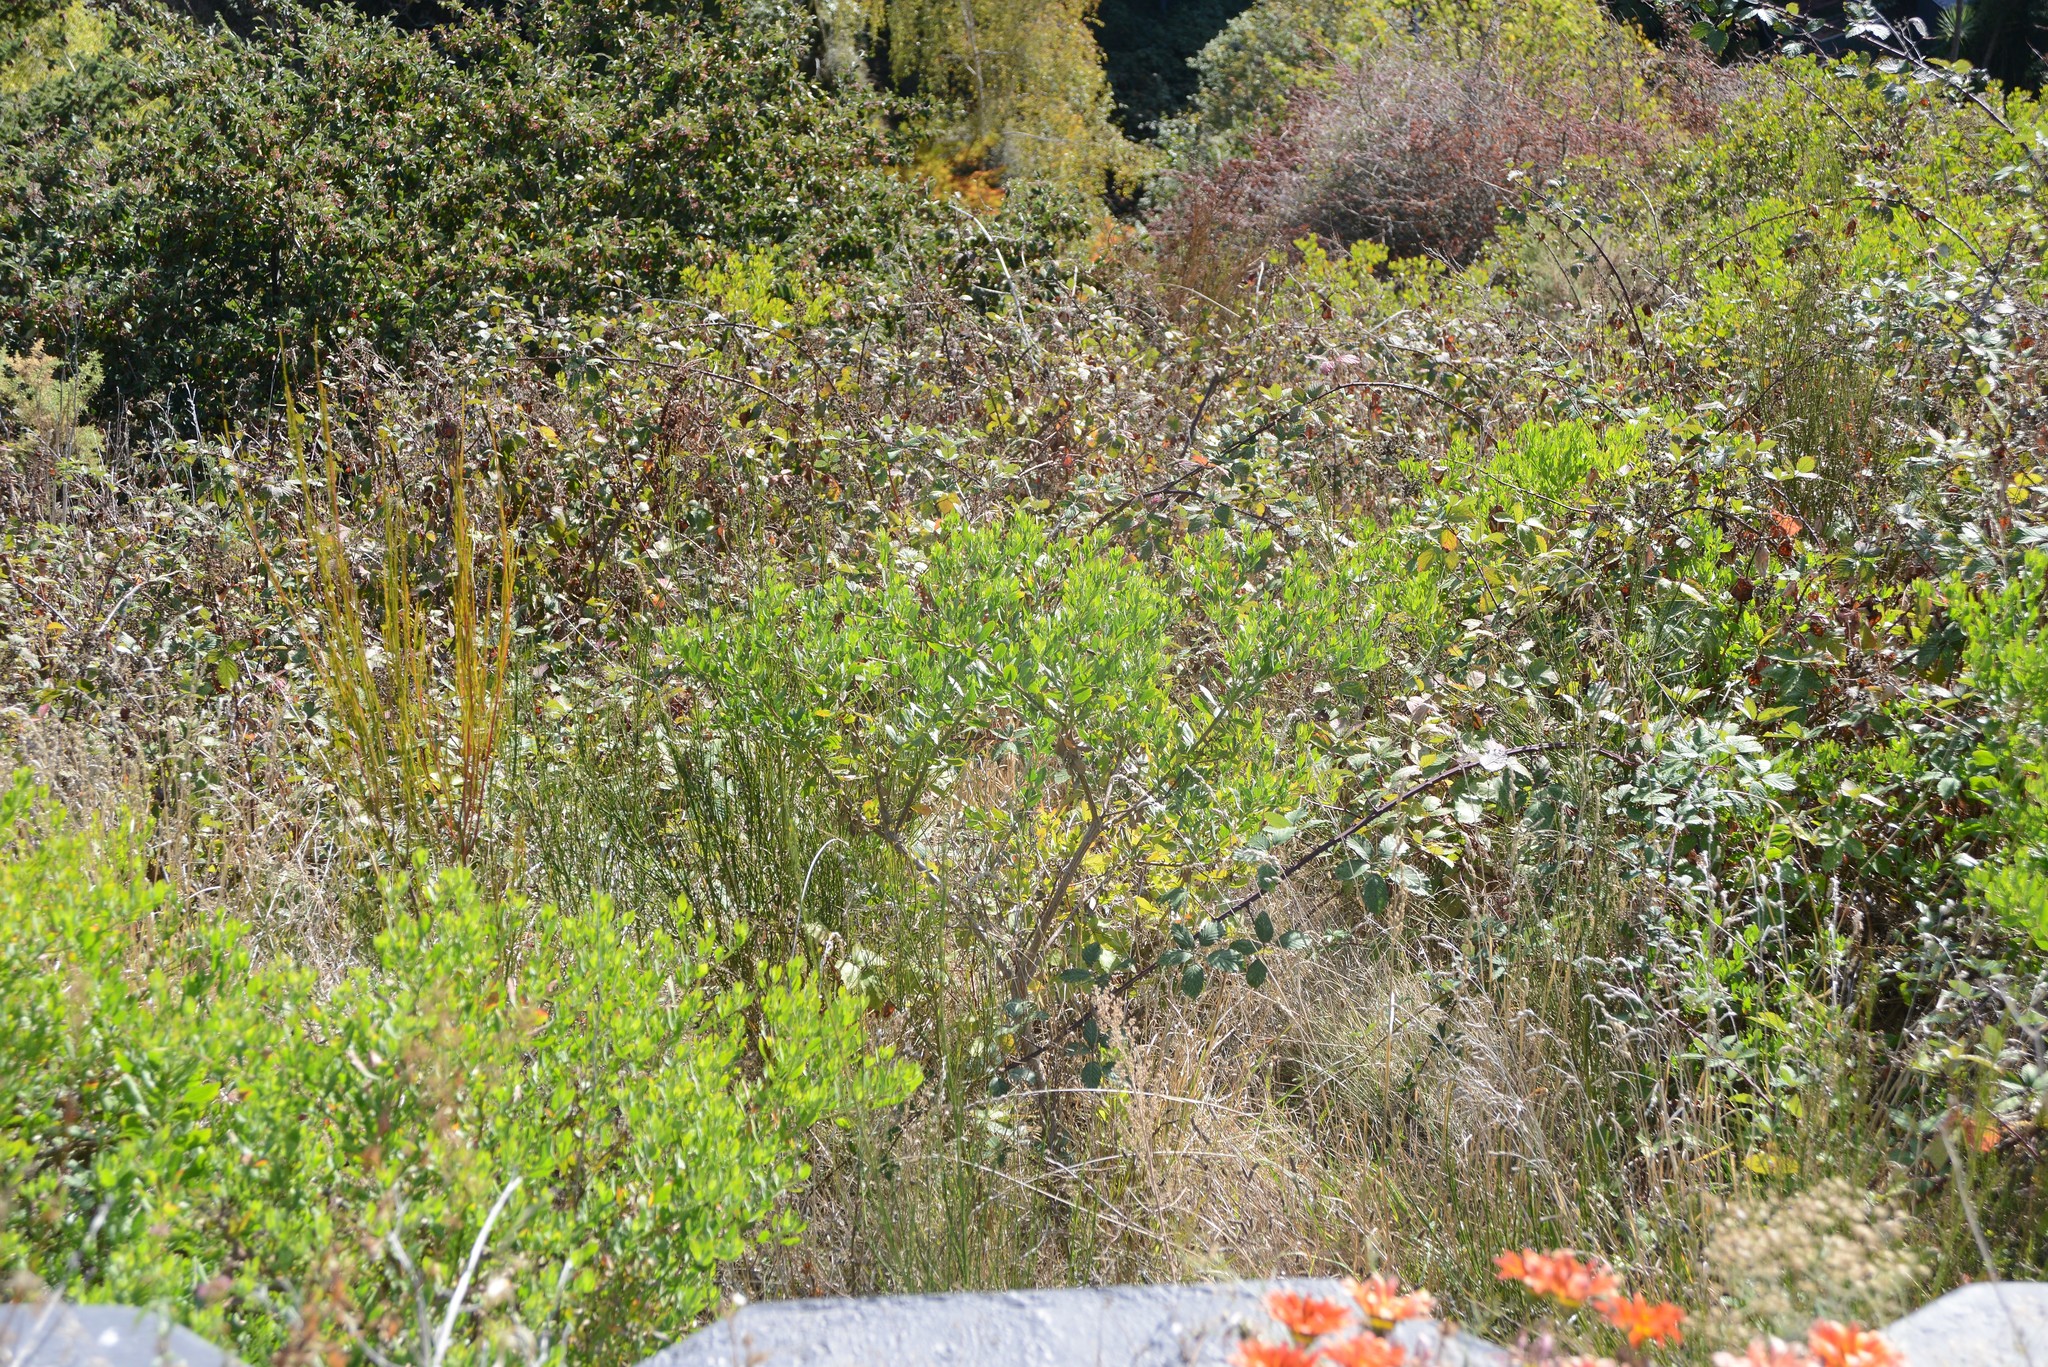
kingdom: Plantae
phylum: Tracheophyta
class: Magnoliopsida
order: Asterales
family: Asteraceae
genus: Osteospermum
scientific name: Osteospermum moniliferum
